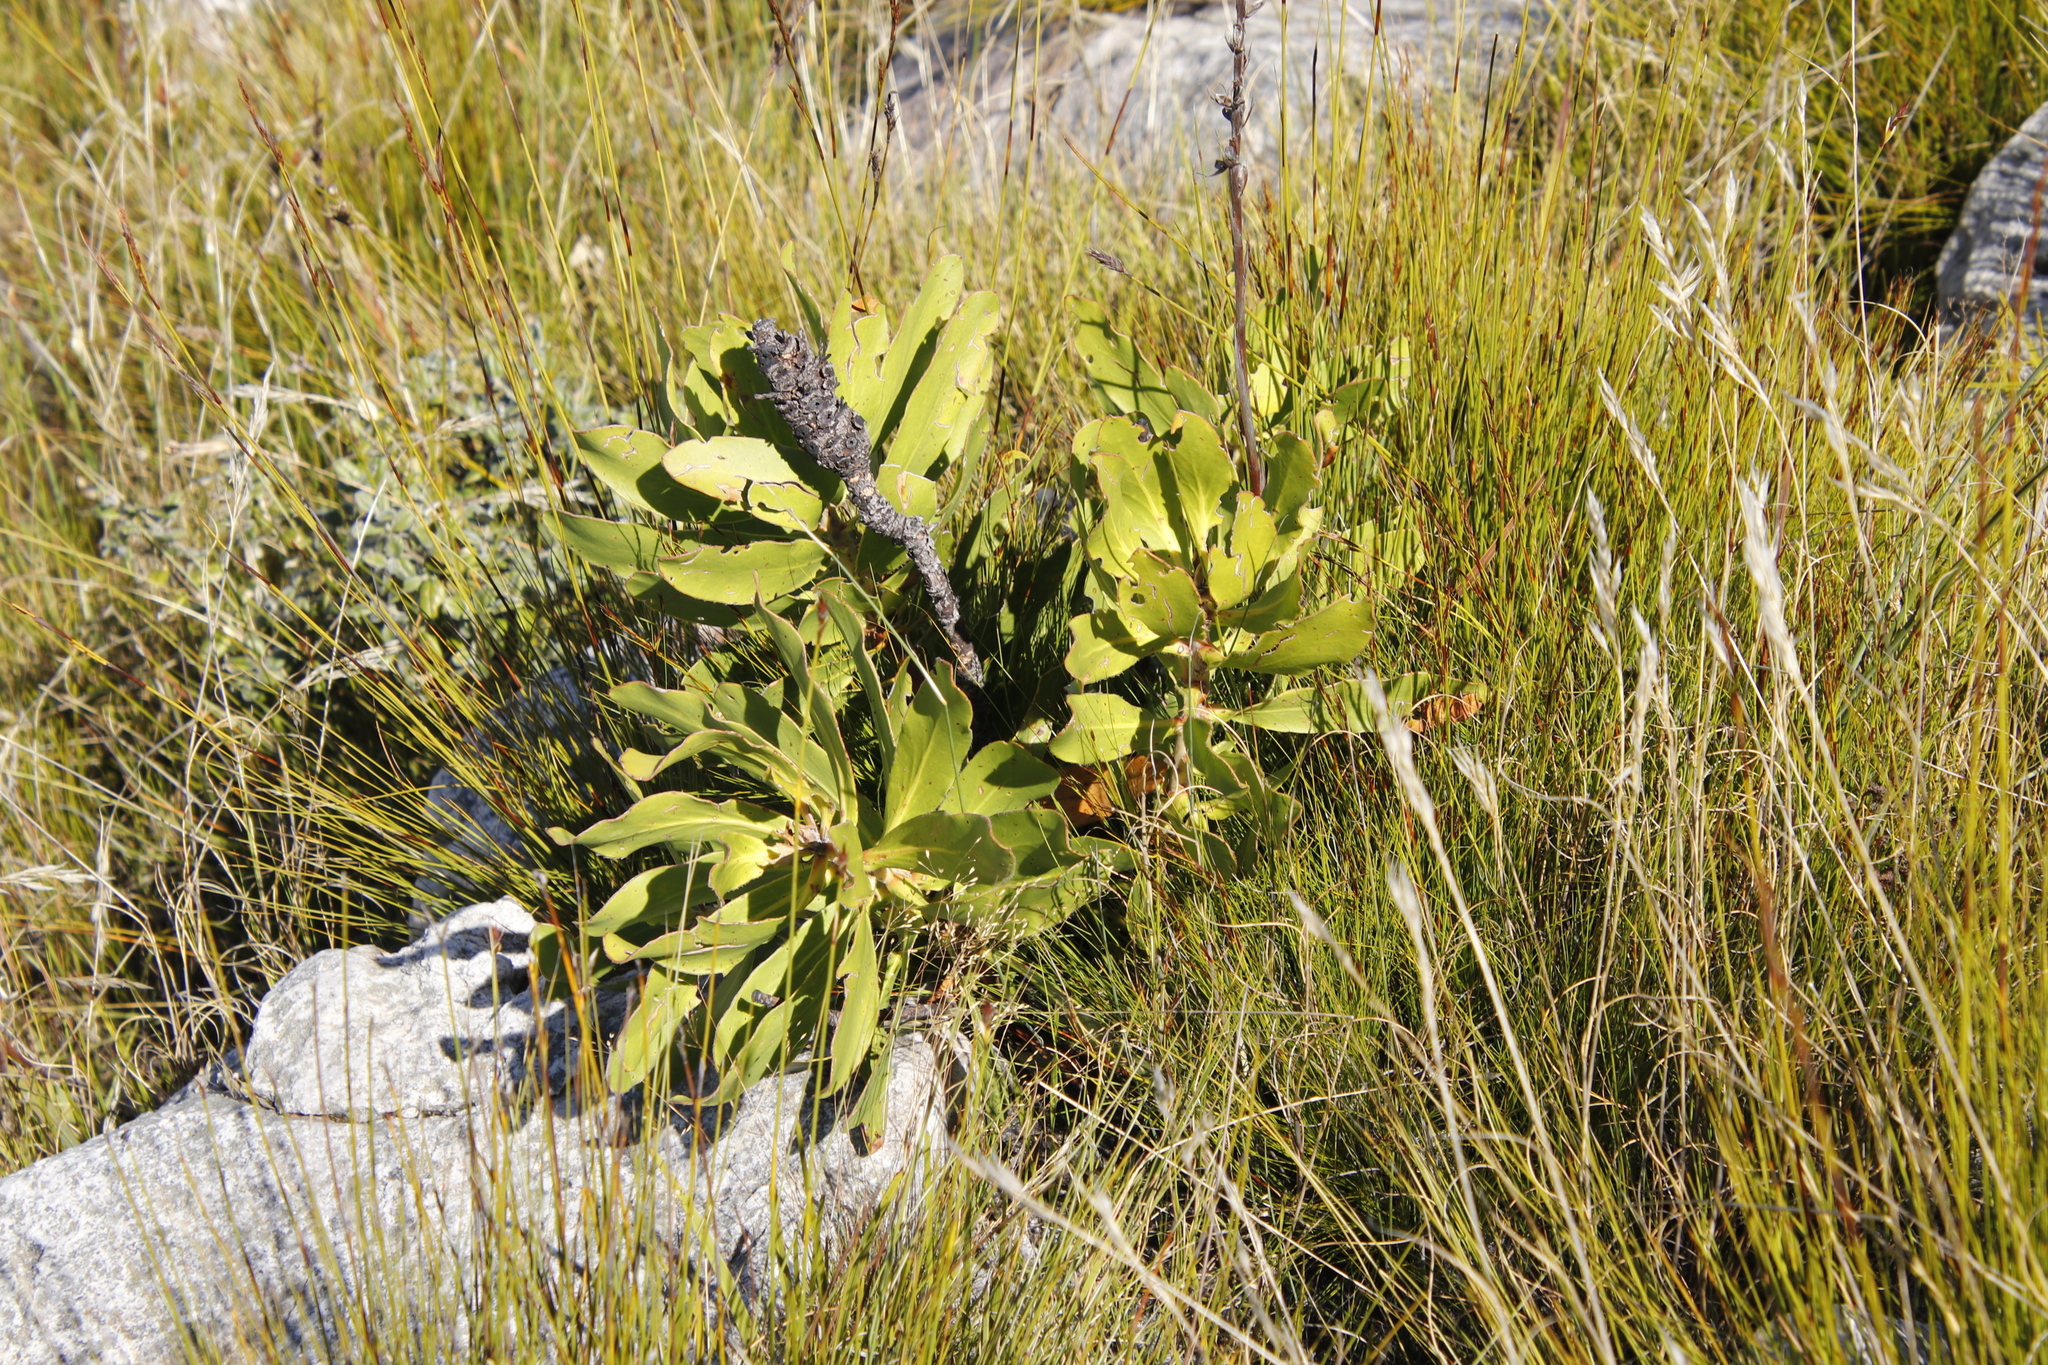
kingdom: Plantae
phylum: Tracheophyta
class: Magnoliopsida
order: Proteales
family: Proteaceae
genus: Protea
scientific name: Protea speciosa
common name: Brown-beard sugarbush
